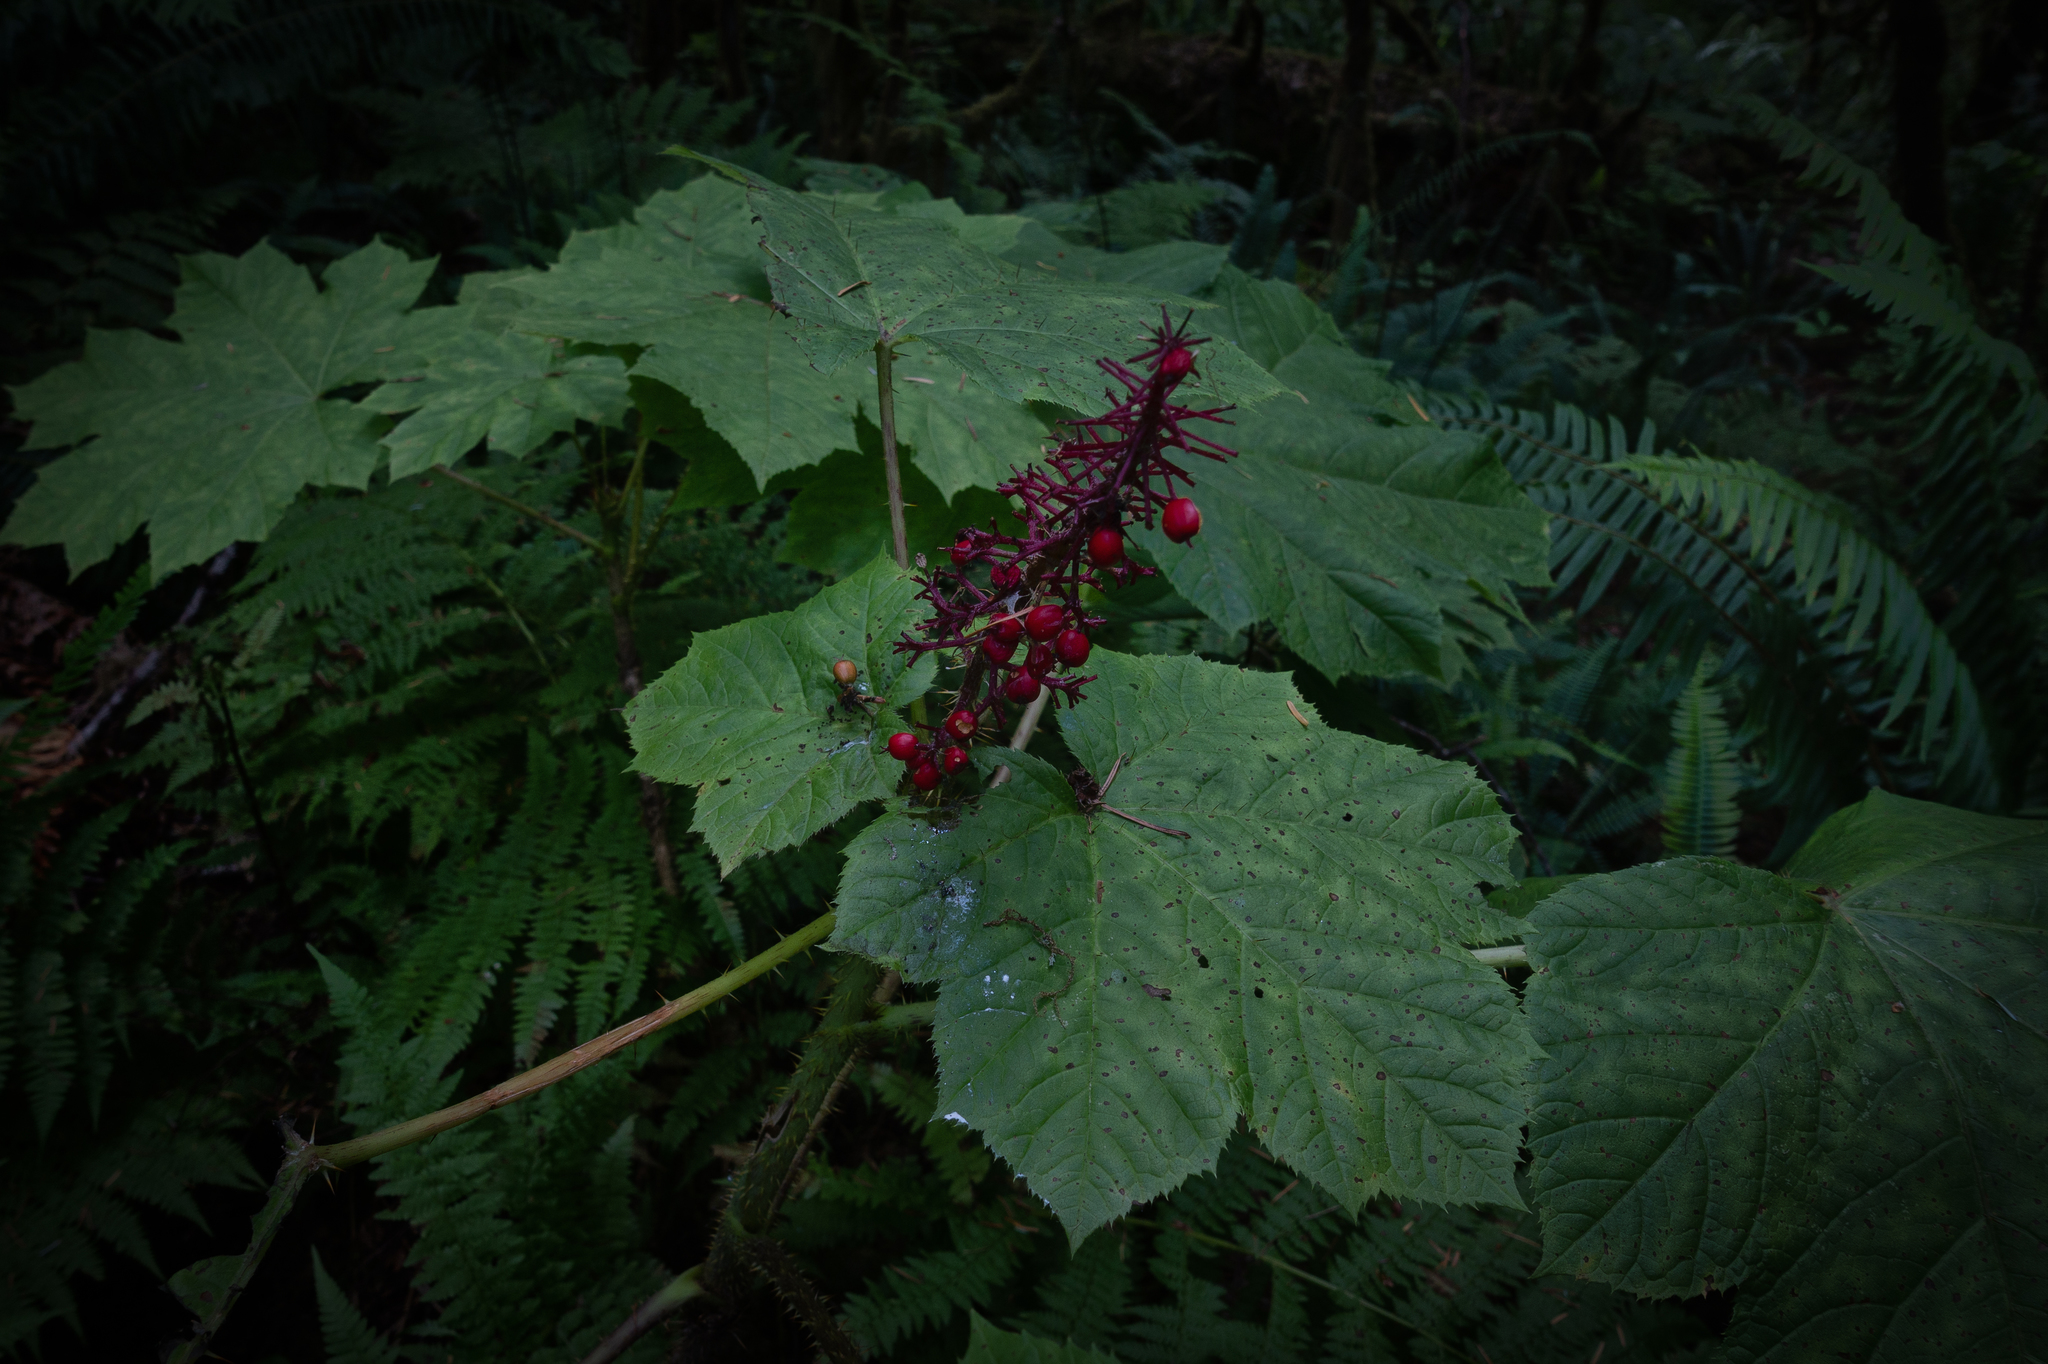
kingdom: Plantae
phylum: Tracheophyta
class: Magnoliopsida
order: Apiales
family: Araliaceae
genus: Oplopanax
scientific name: Oplopanax horridus
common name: Devil's walking-stick
